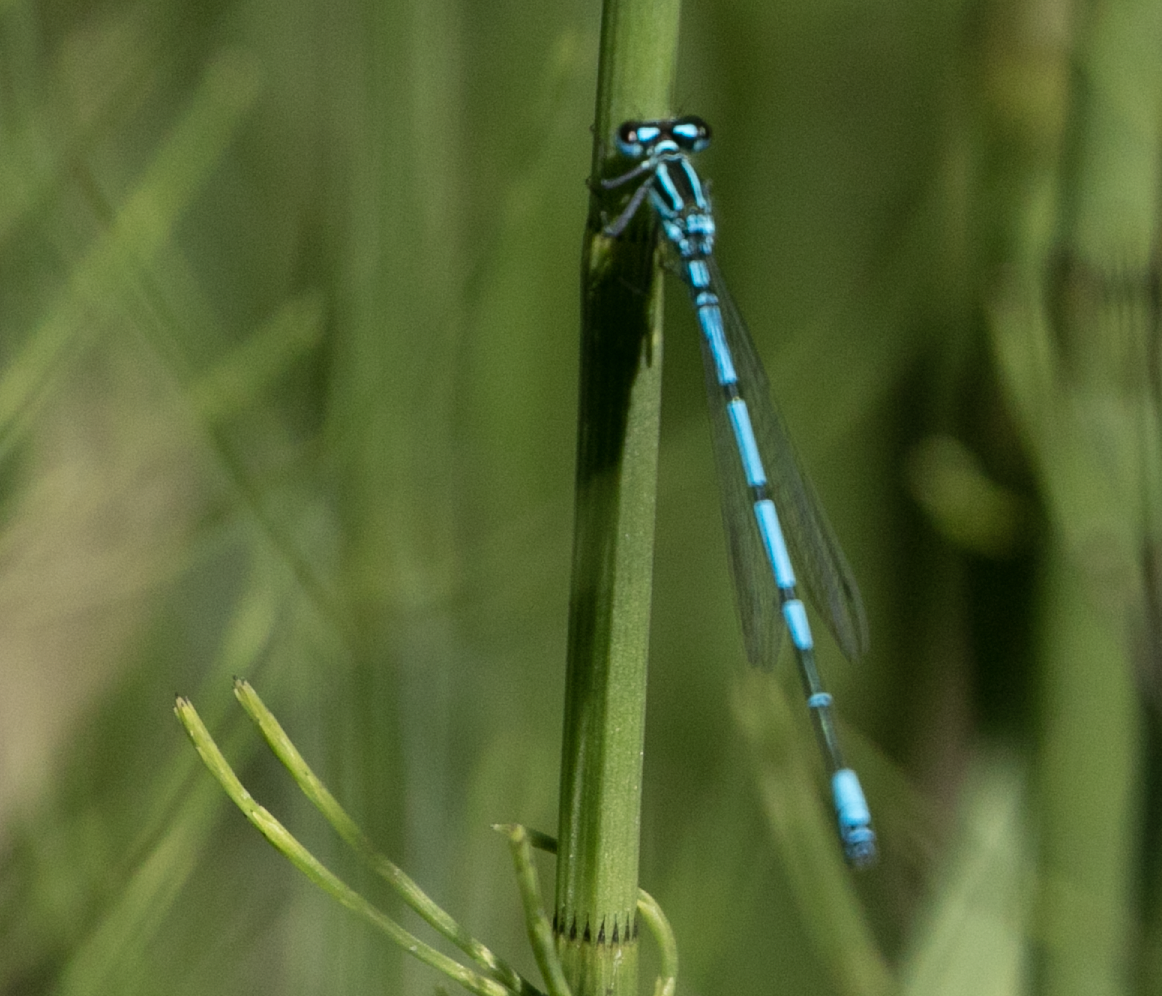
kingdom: Animalia
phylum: Arthropoda
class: Insecta
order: Odonata
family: Coenagrionidae
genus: Coenagrion
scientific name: Coenagrion puella
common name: Azure damselfly
